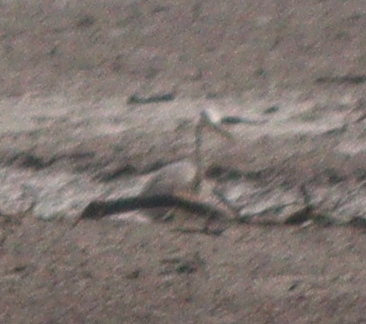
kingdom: Animalia
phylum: Chordata
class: Aves
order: Pelecaniformes
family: Ardeidae
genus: Ardea
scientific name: Ardea cinerea
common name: Grey heron
